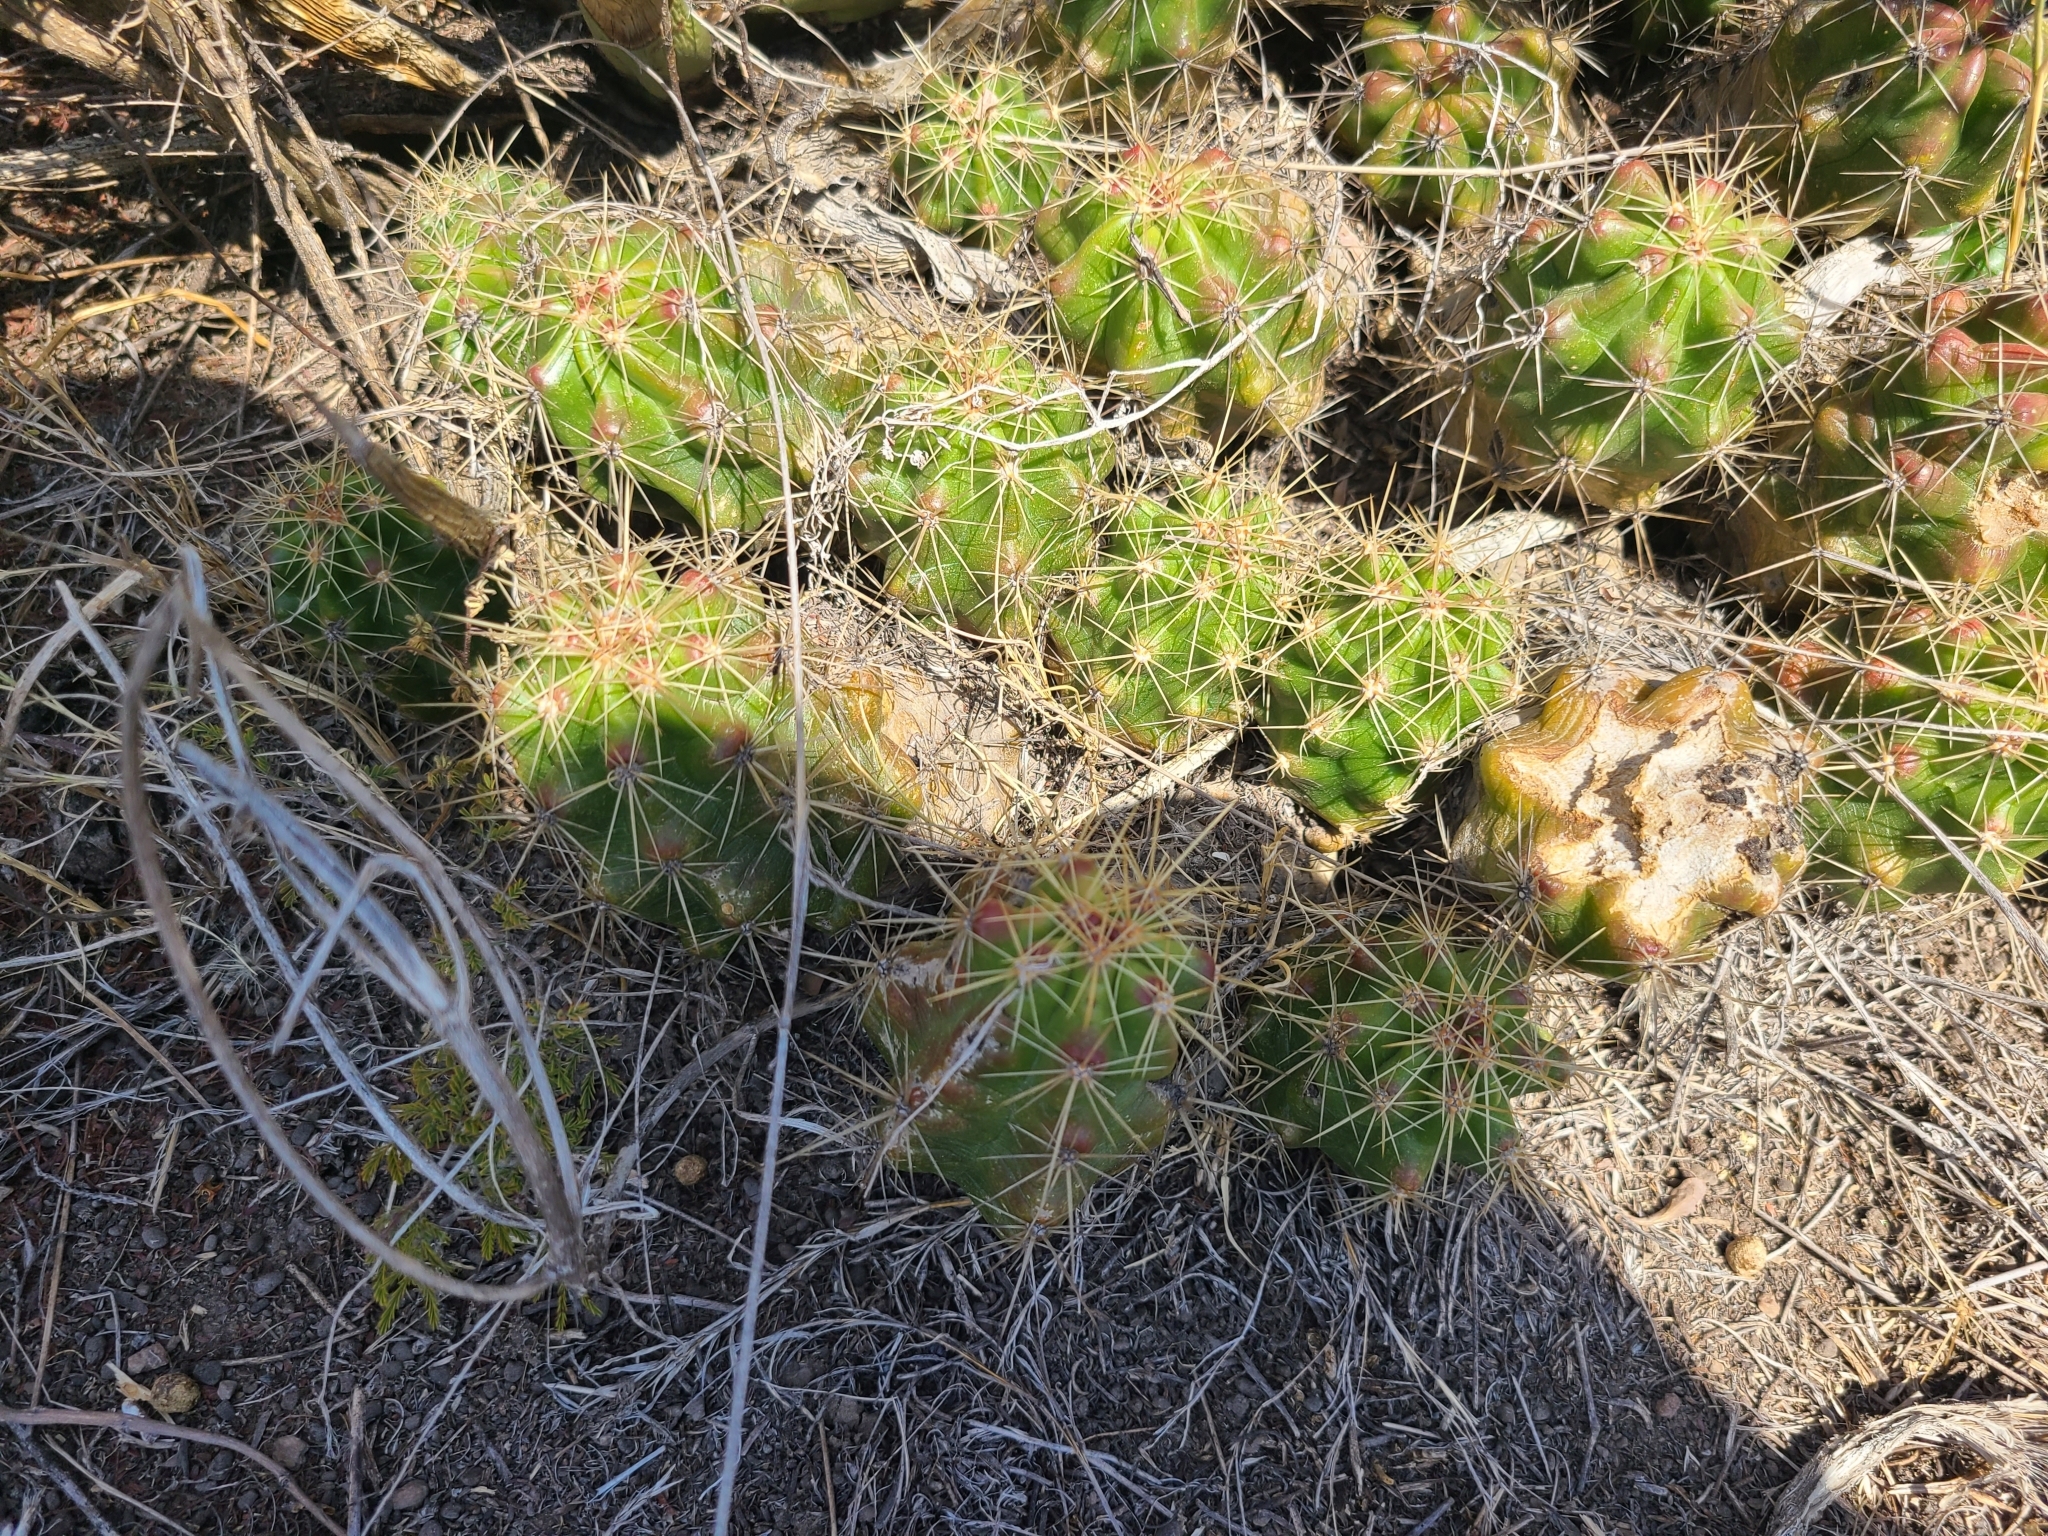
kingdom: Plantae
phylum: Tracheophyta
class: Magnoliopsida
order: Caryophyllales
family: Cactaceae
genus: Echinocereus
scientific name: Echinocereus cinerascens
